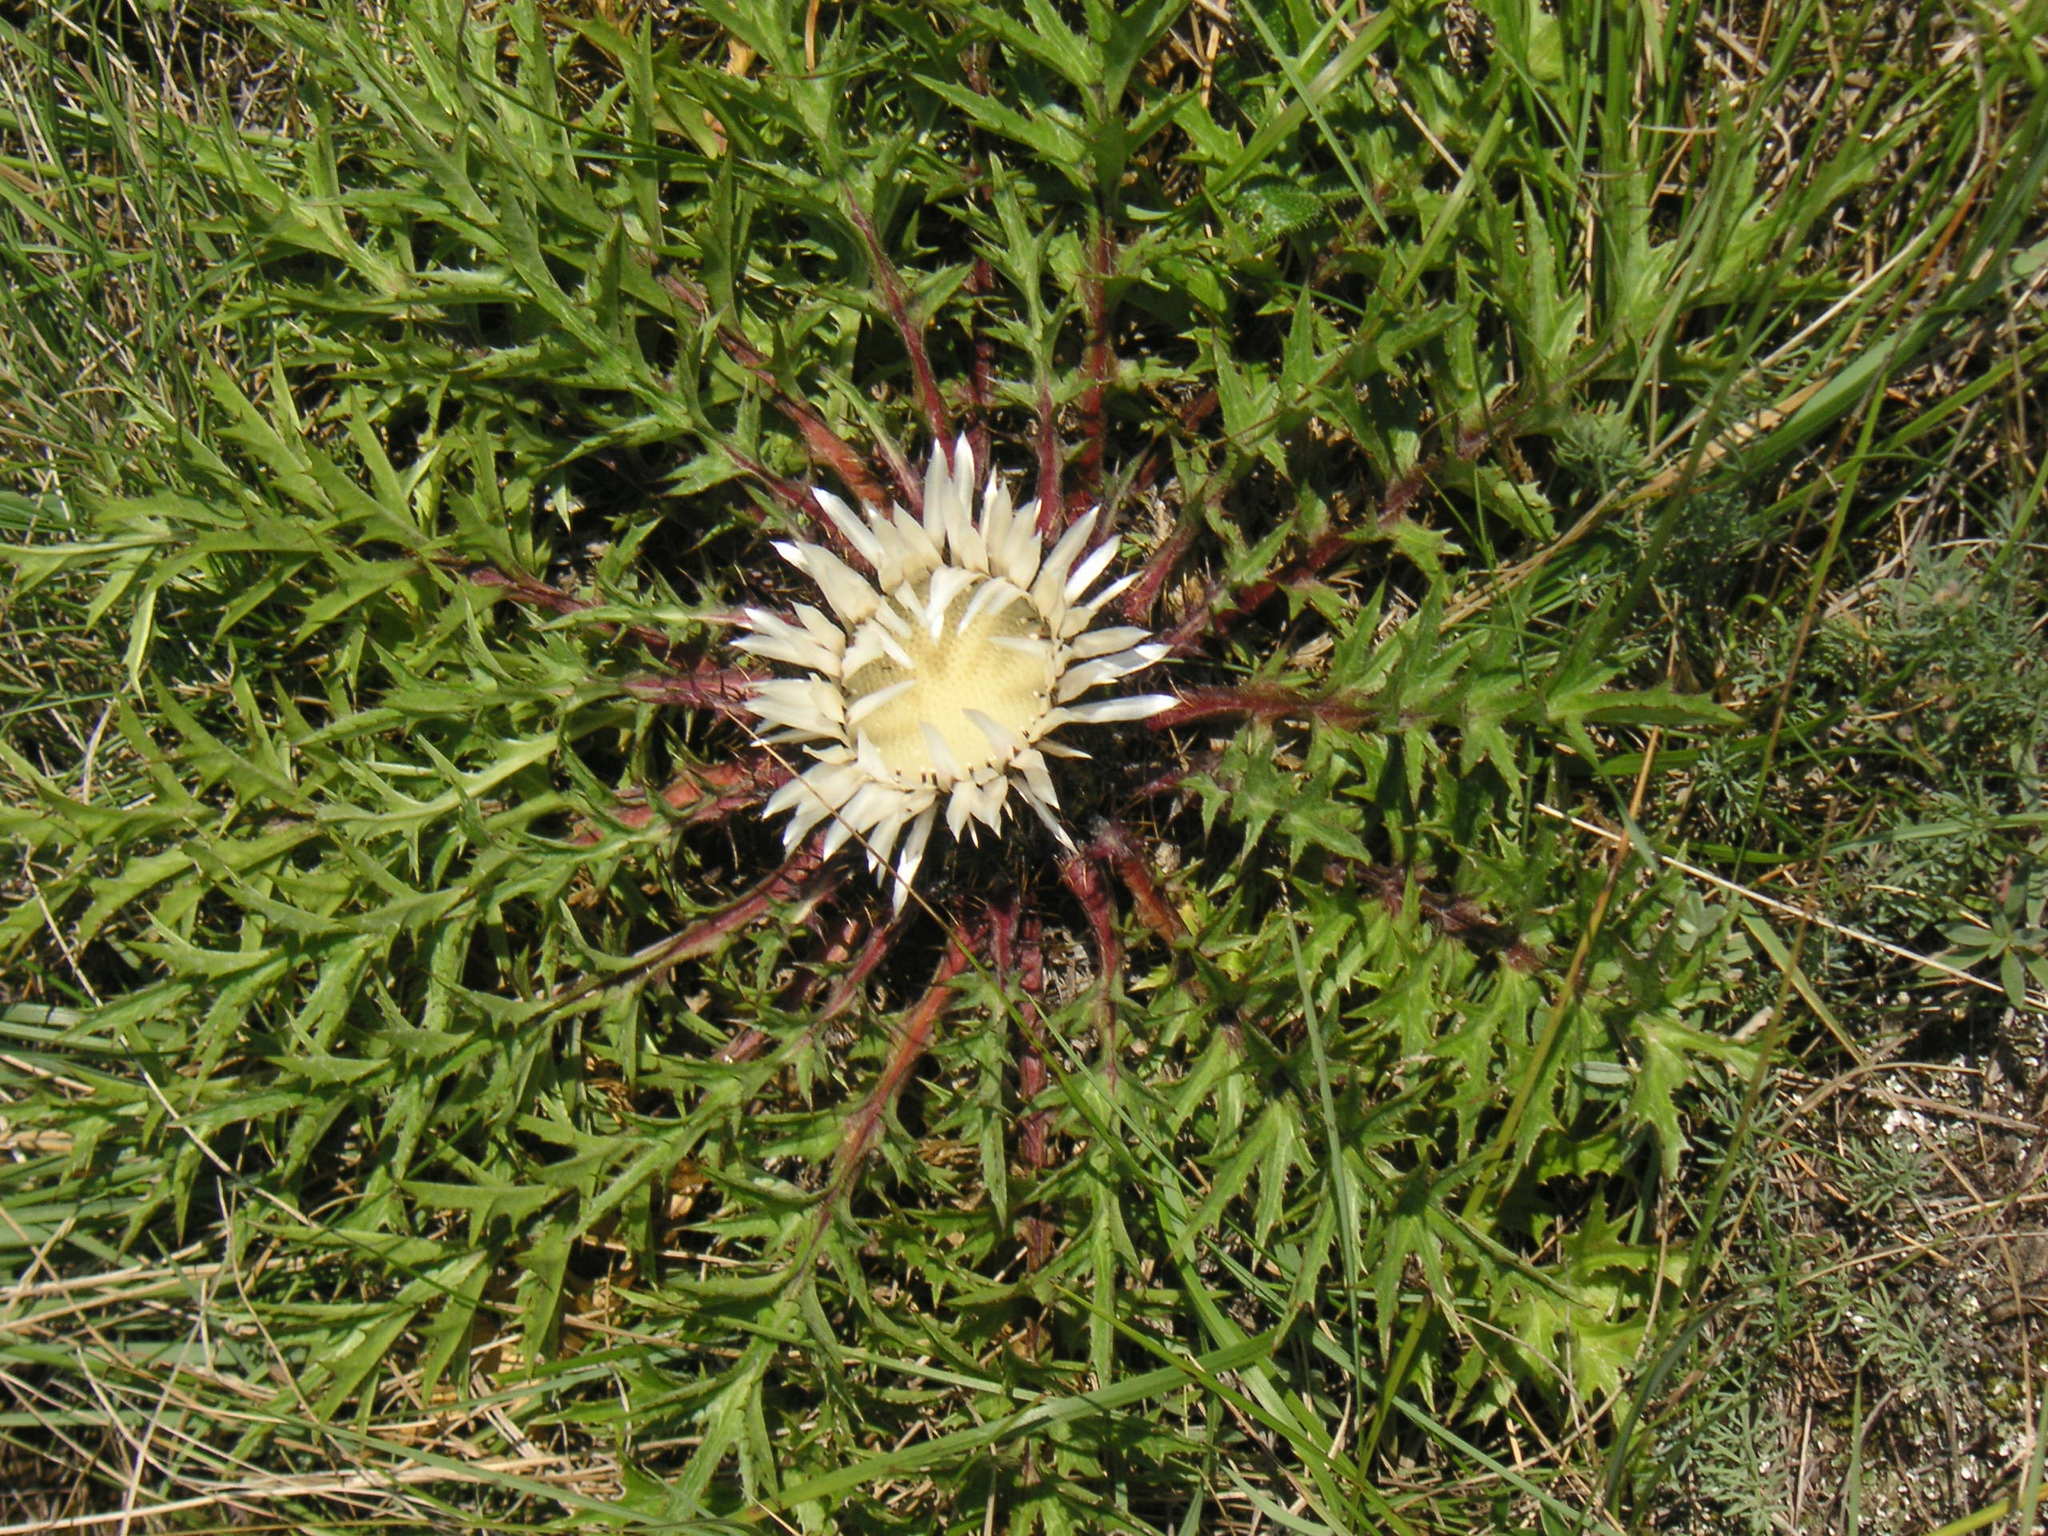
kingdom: Plantae
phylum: Tracheophyta
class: Magnoliopsida
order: Asterales
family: Asteraceae
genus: Carlina
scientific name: Carlina acaulis
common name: Stemless carline thistle
